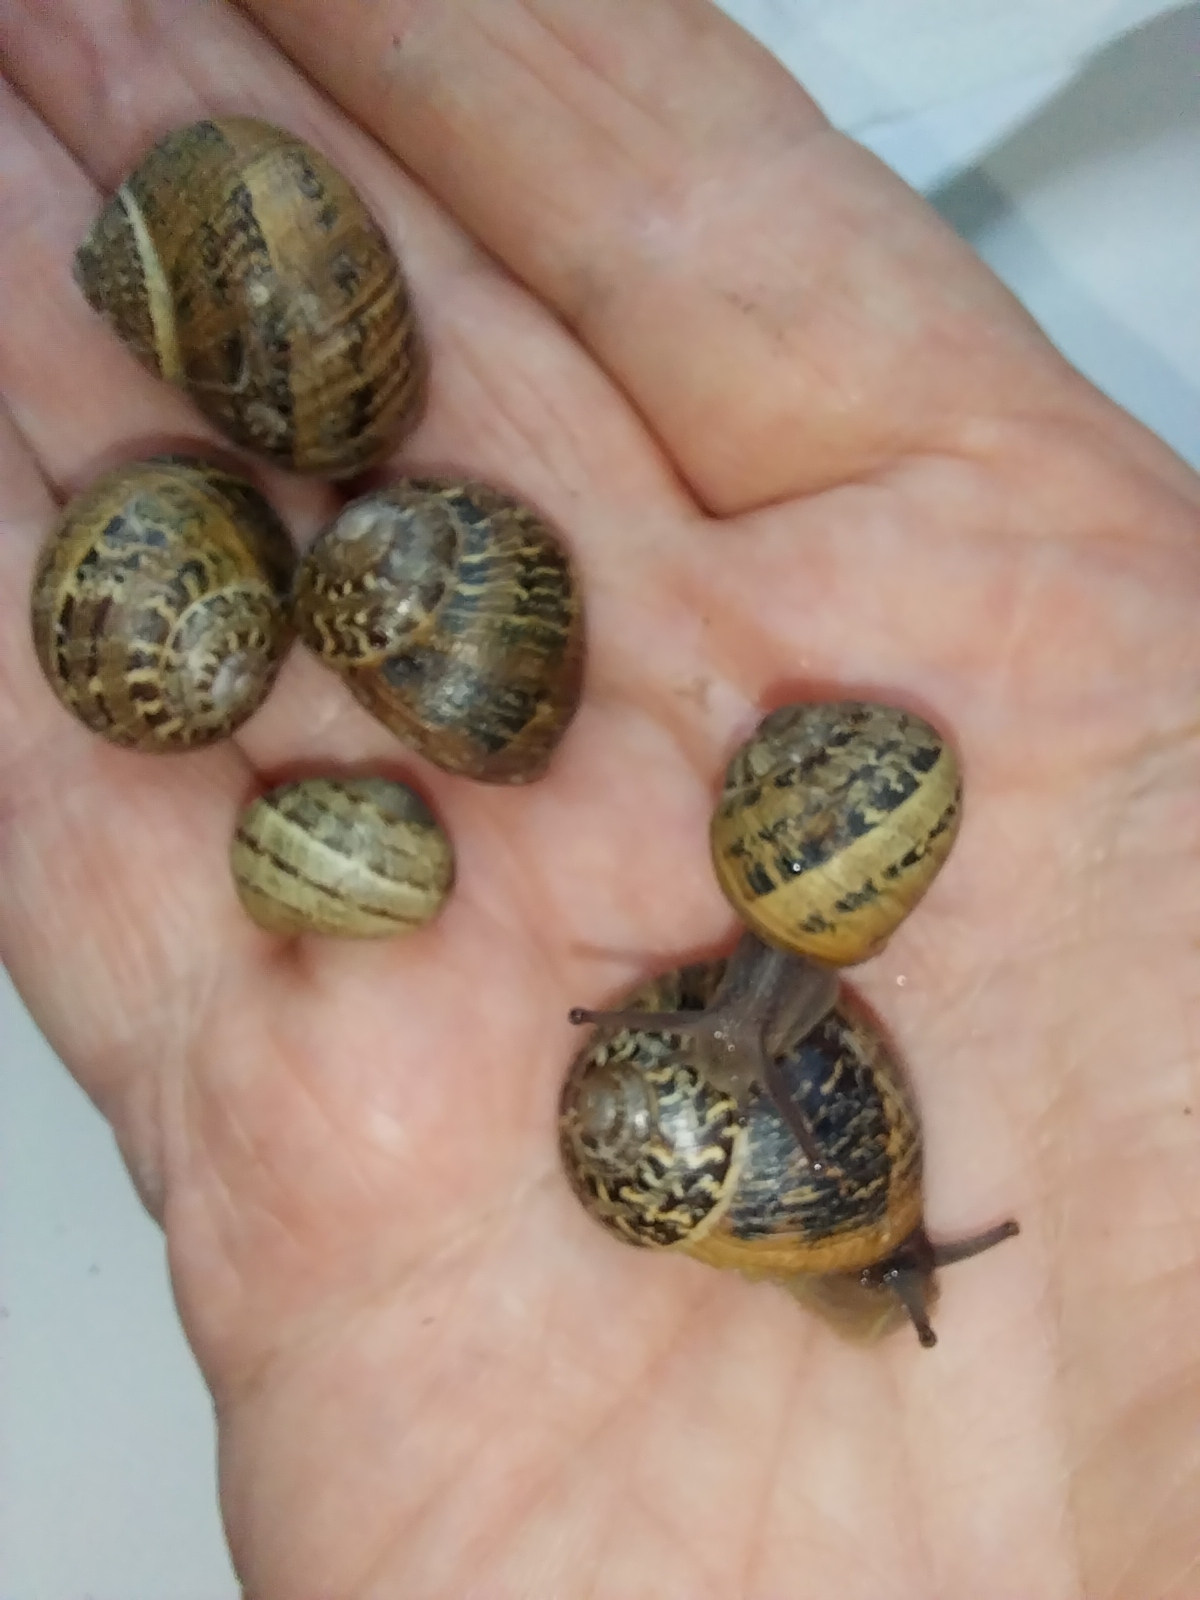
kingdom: Animalia
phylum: Mollusca
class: Gastropoda
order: Stylommatophora
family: Helicidae
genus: Cornu
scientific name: Cornu aspersum
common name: Brown garden snail
